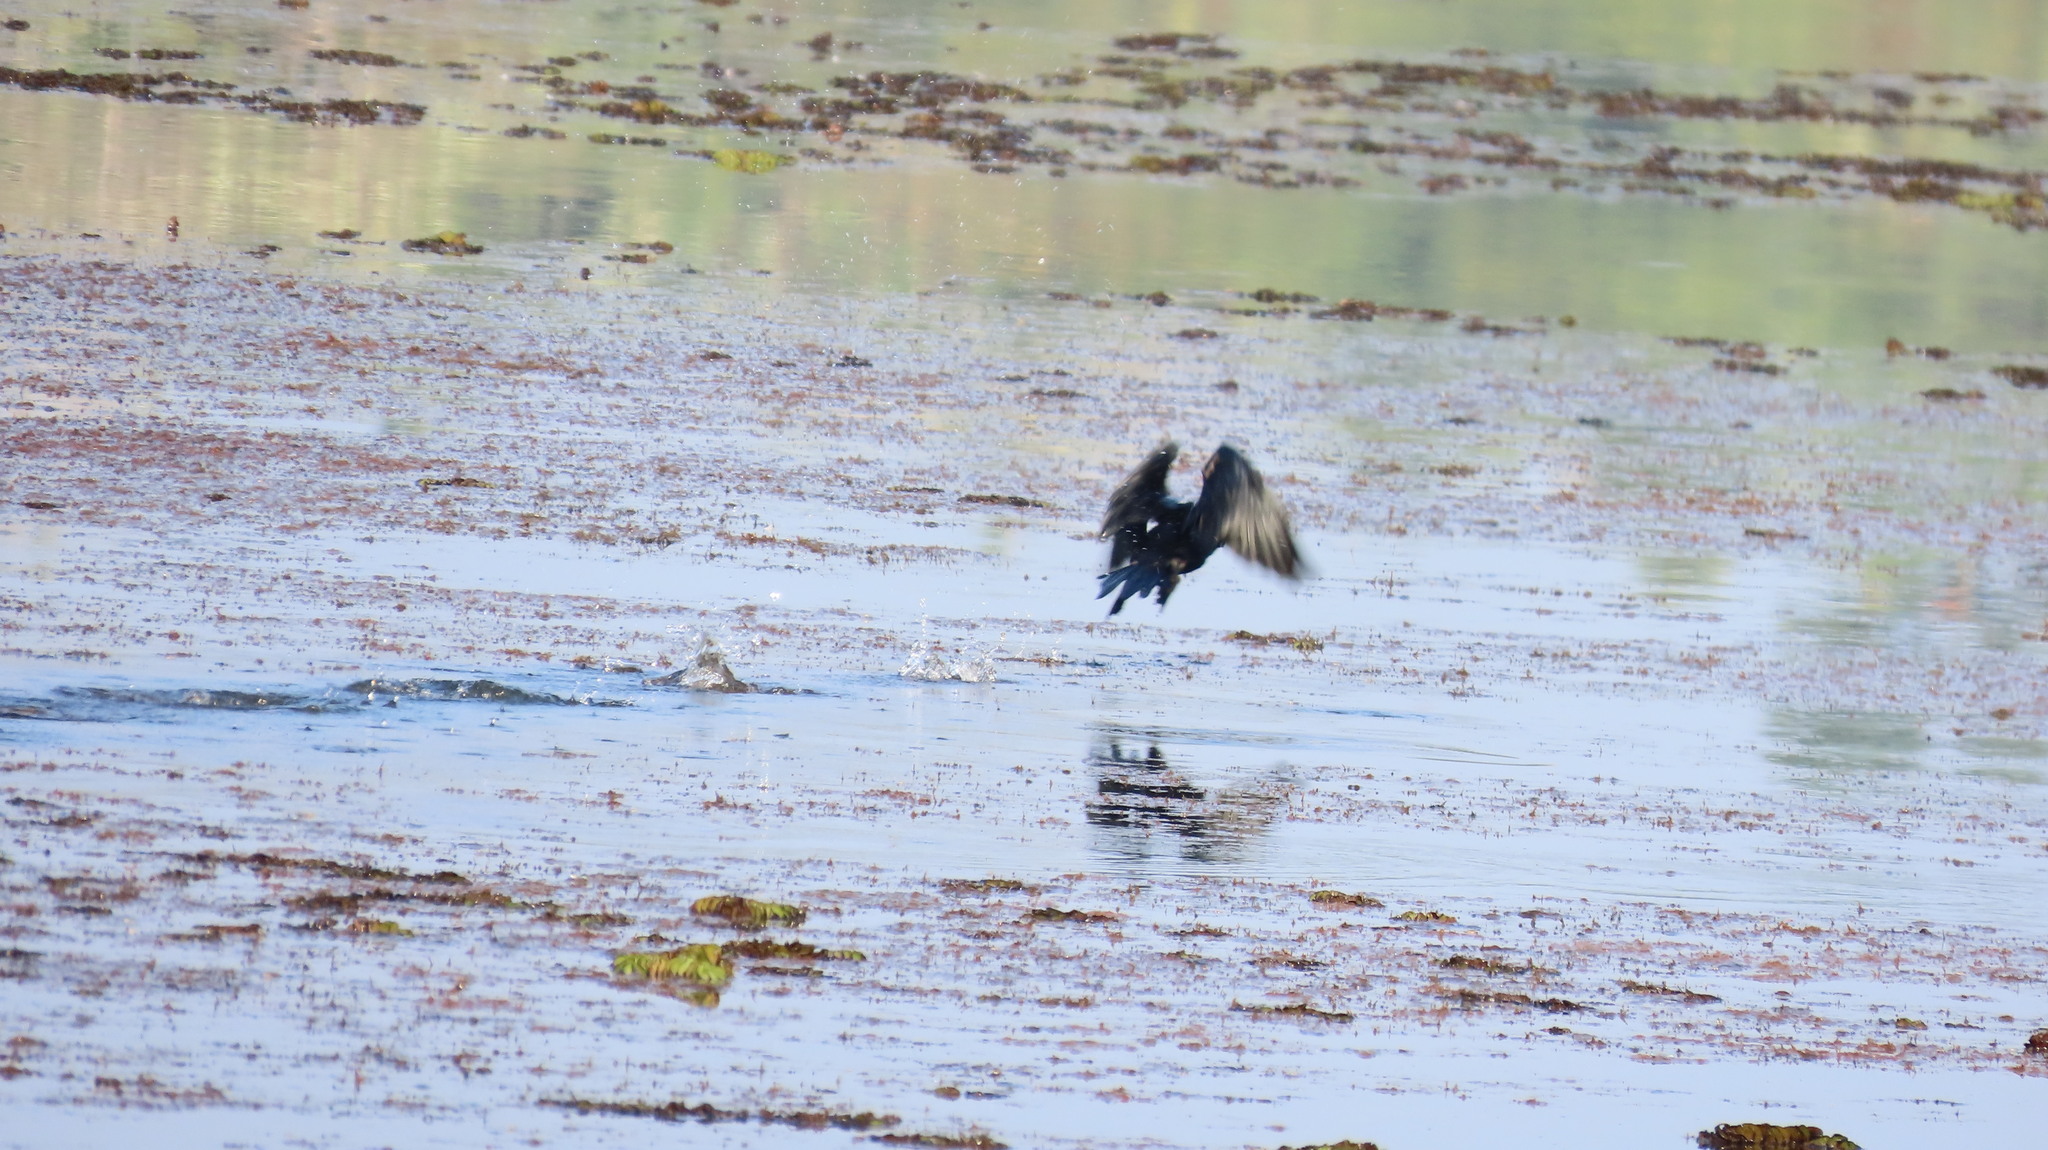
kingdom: Animalia
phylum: Chordata
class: Aves
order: Suliformes
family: Phalacrocoracidae
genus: Microcarbo
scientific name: Microcarbo niger
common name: Little cormorant
